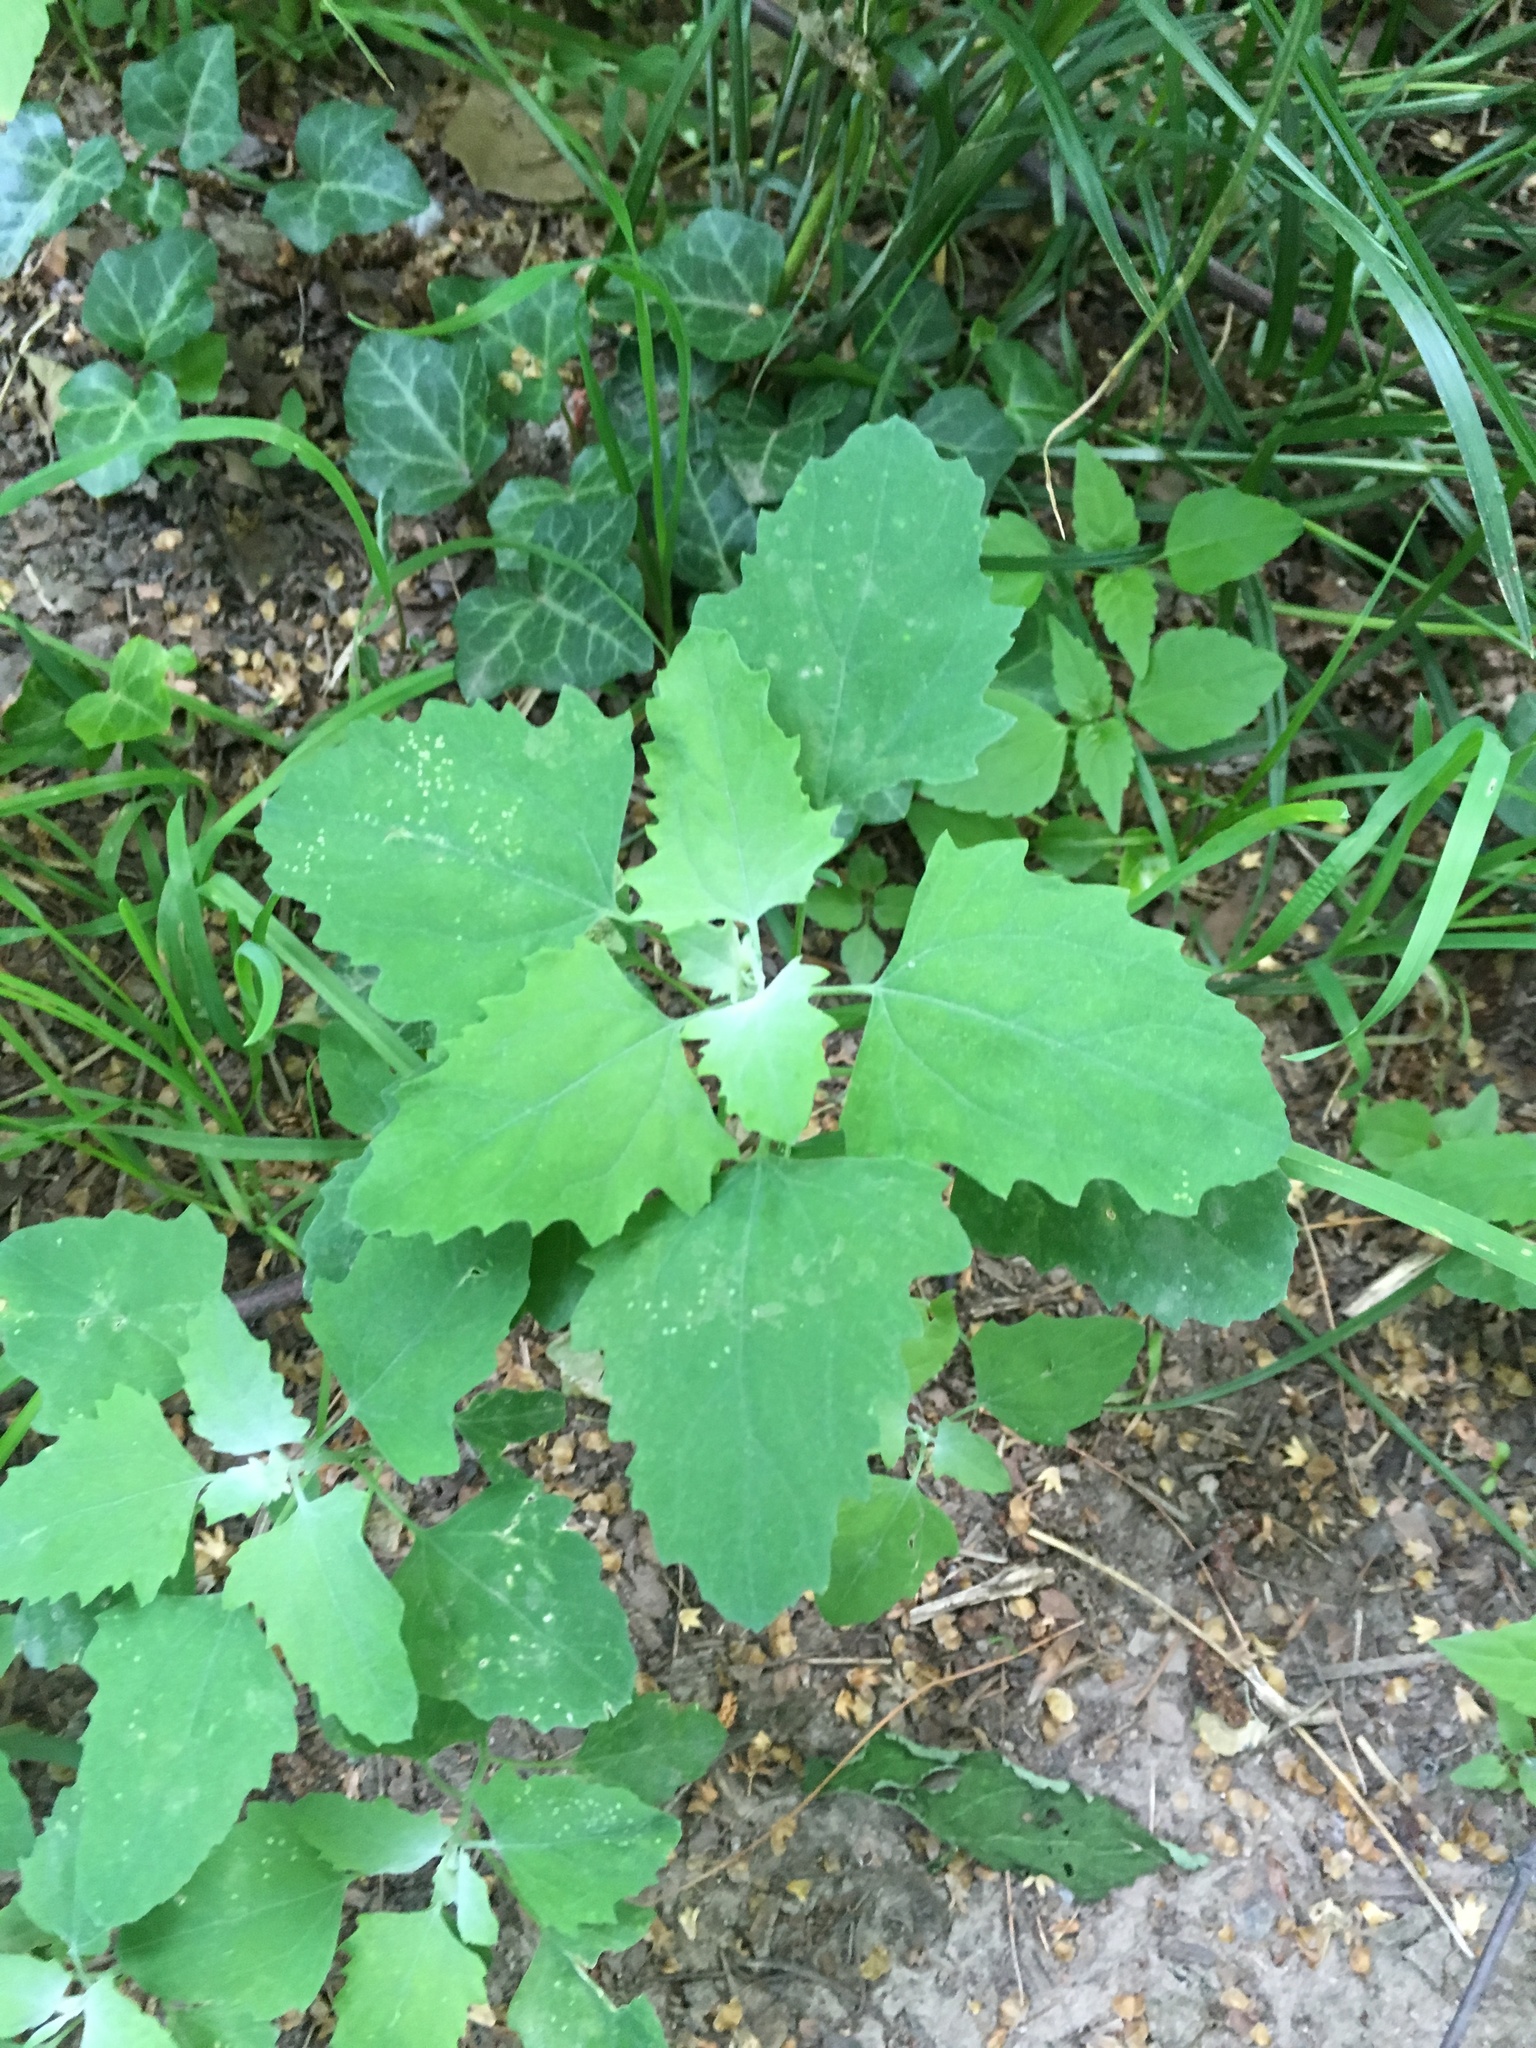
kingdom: Plantae
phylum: Tracheophyta
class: Magnoliopsida
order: Caryophyllales
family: Amaranthaceae
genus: Chenopodium
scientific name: Chenopodium album
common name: Fat-hen
